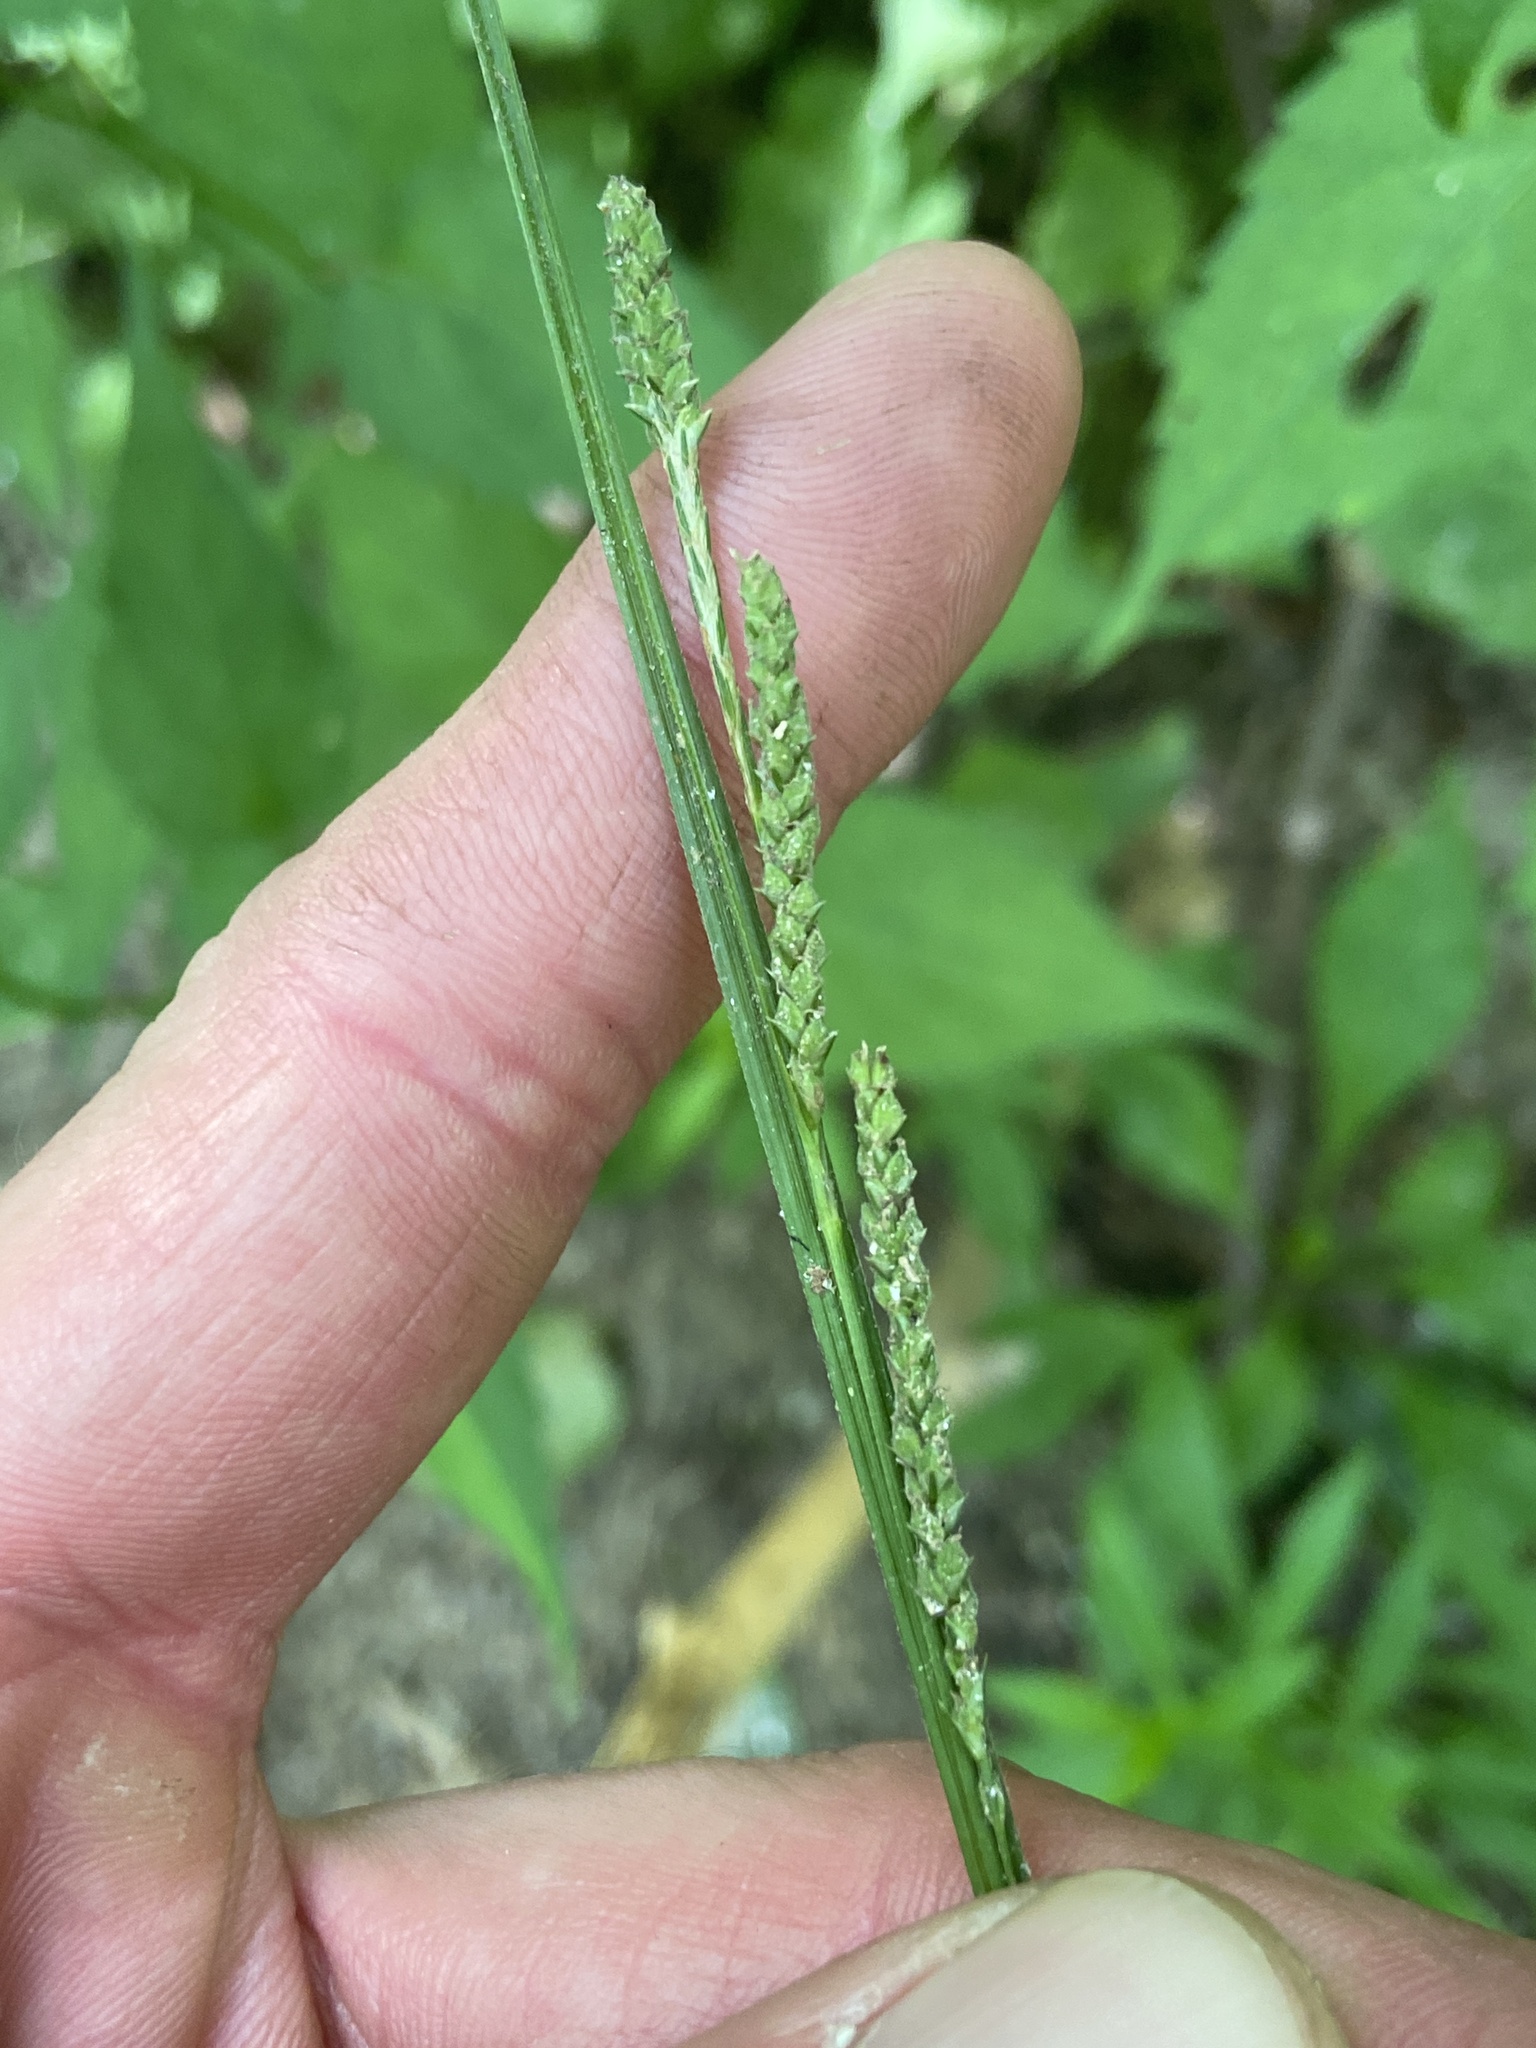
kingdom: Plantae
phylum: Tracheophyta
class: Liliopsida
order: Poales
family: Cyperaceae
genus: Carex
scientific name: Carex virescens
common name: Ribbed sedge
